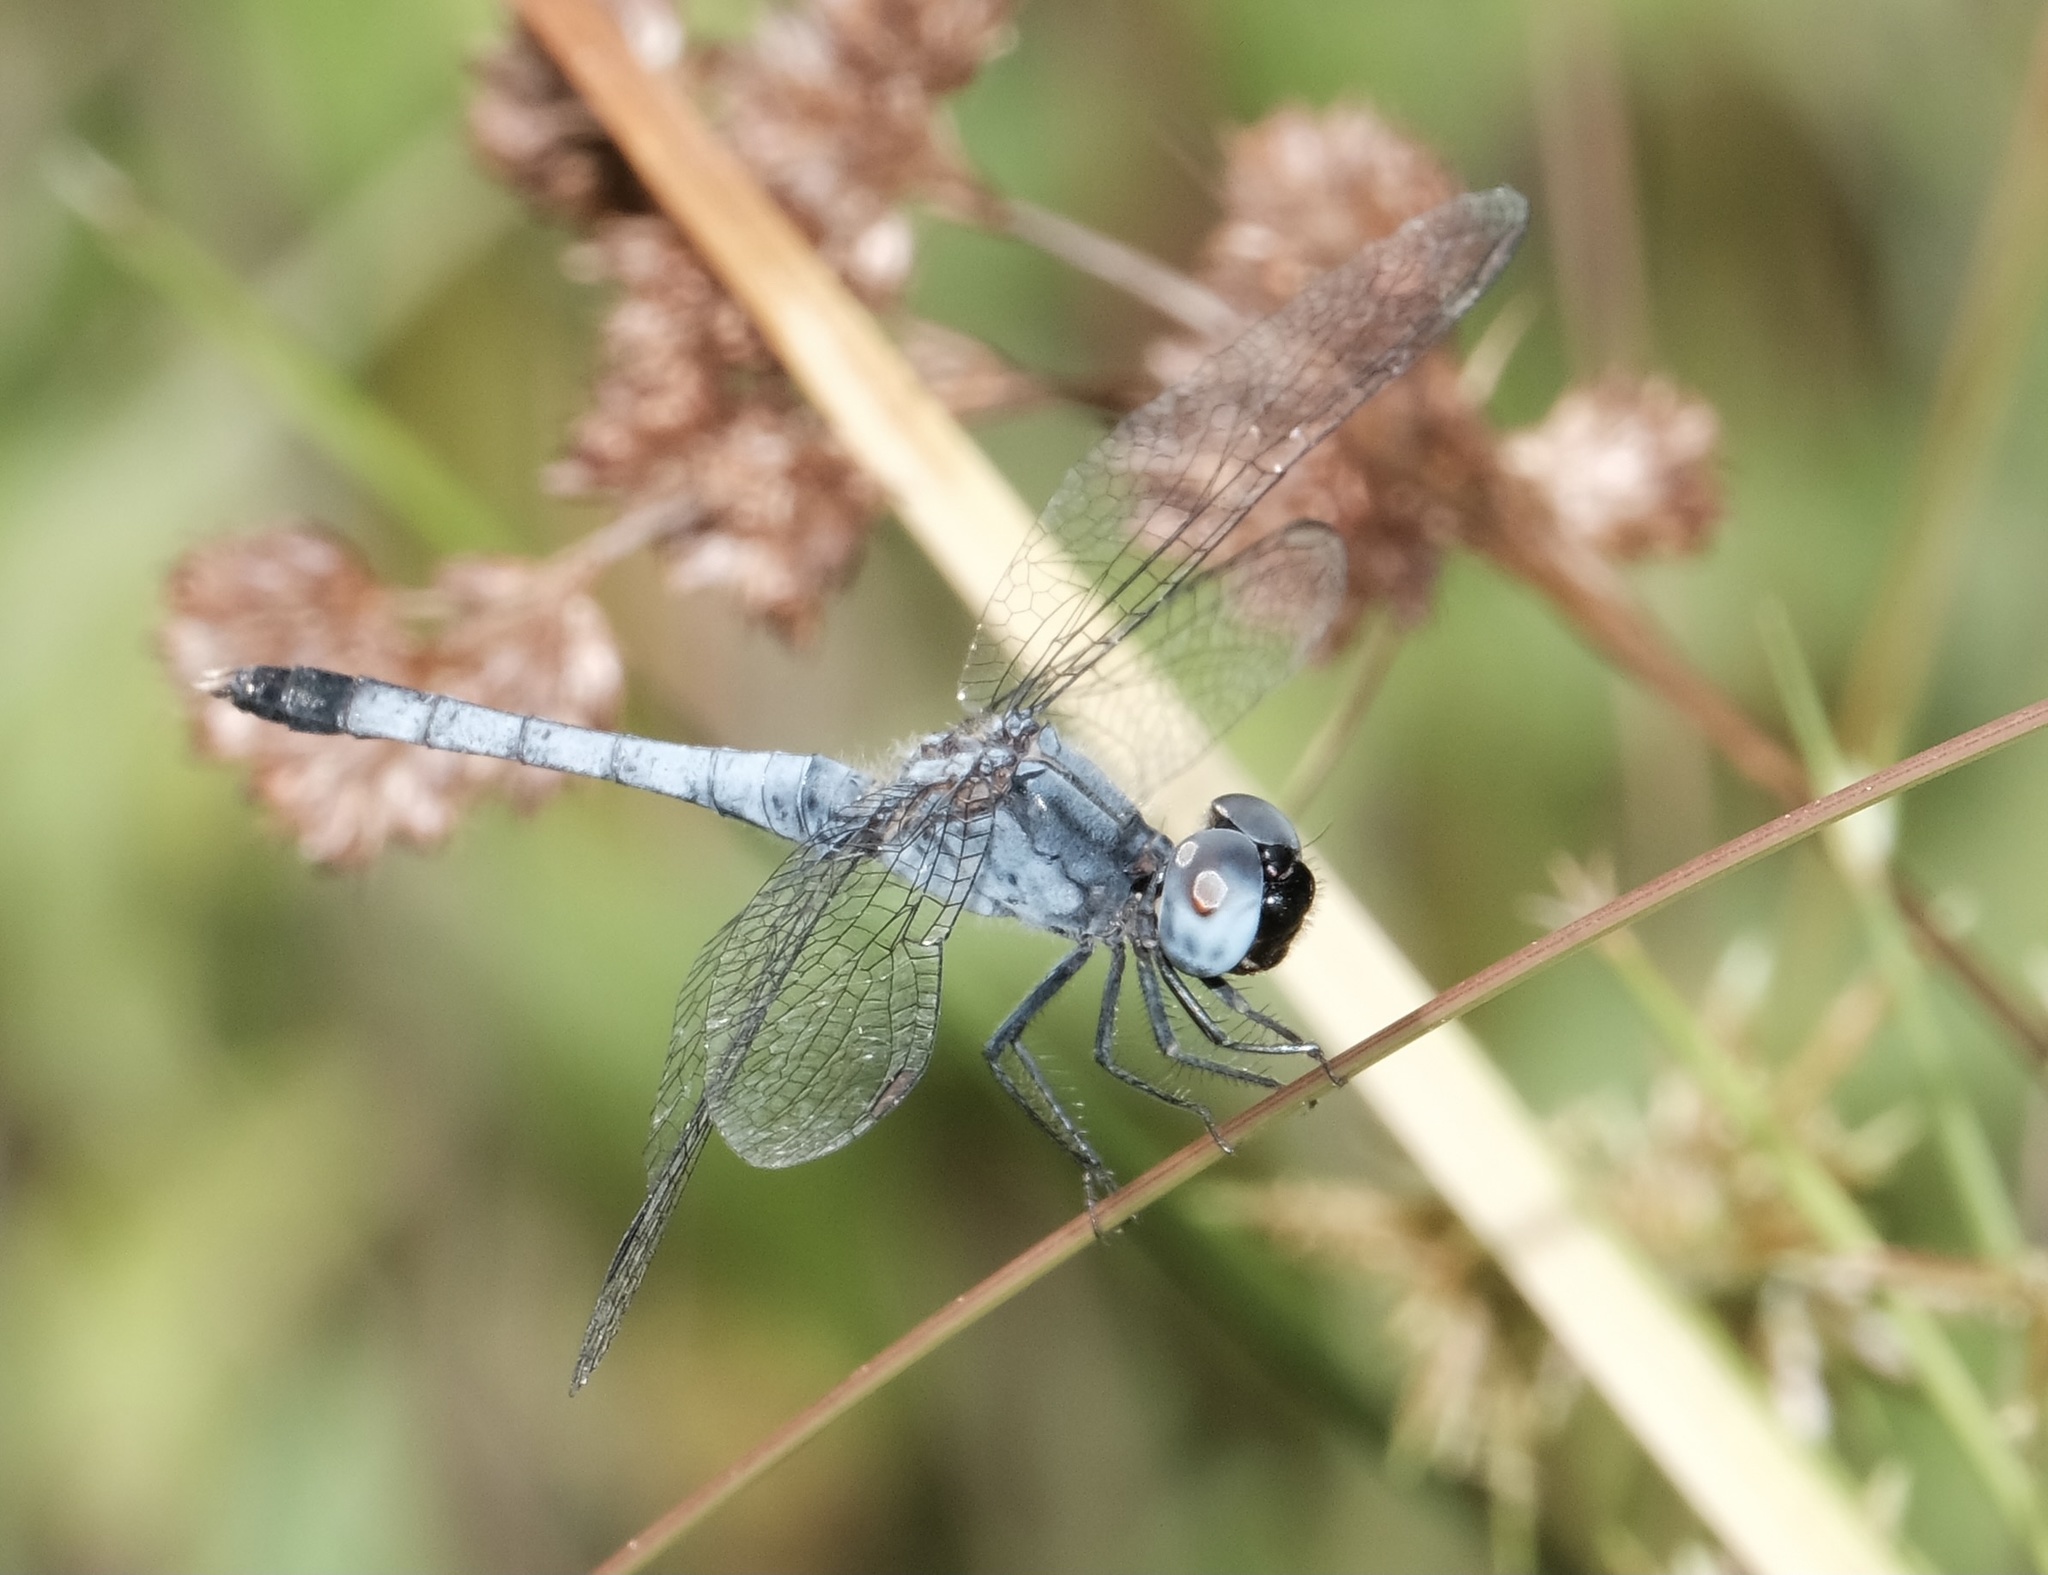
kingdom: Animalia
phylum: Arthropoda
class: Insecta
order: Odonata
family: Libellulidae
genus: Erythrodiplax
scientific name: Erythrodiplax minuscula
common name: Little blue dragonlet
